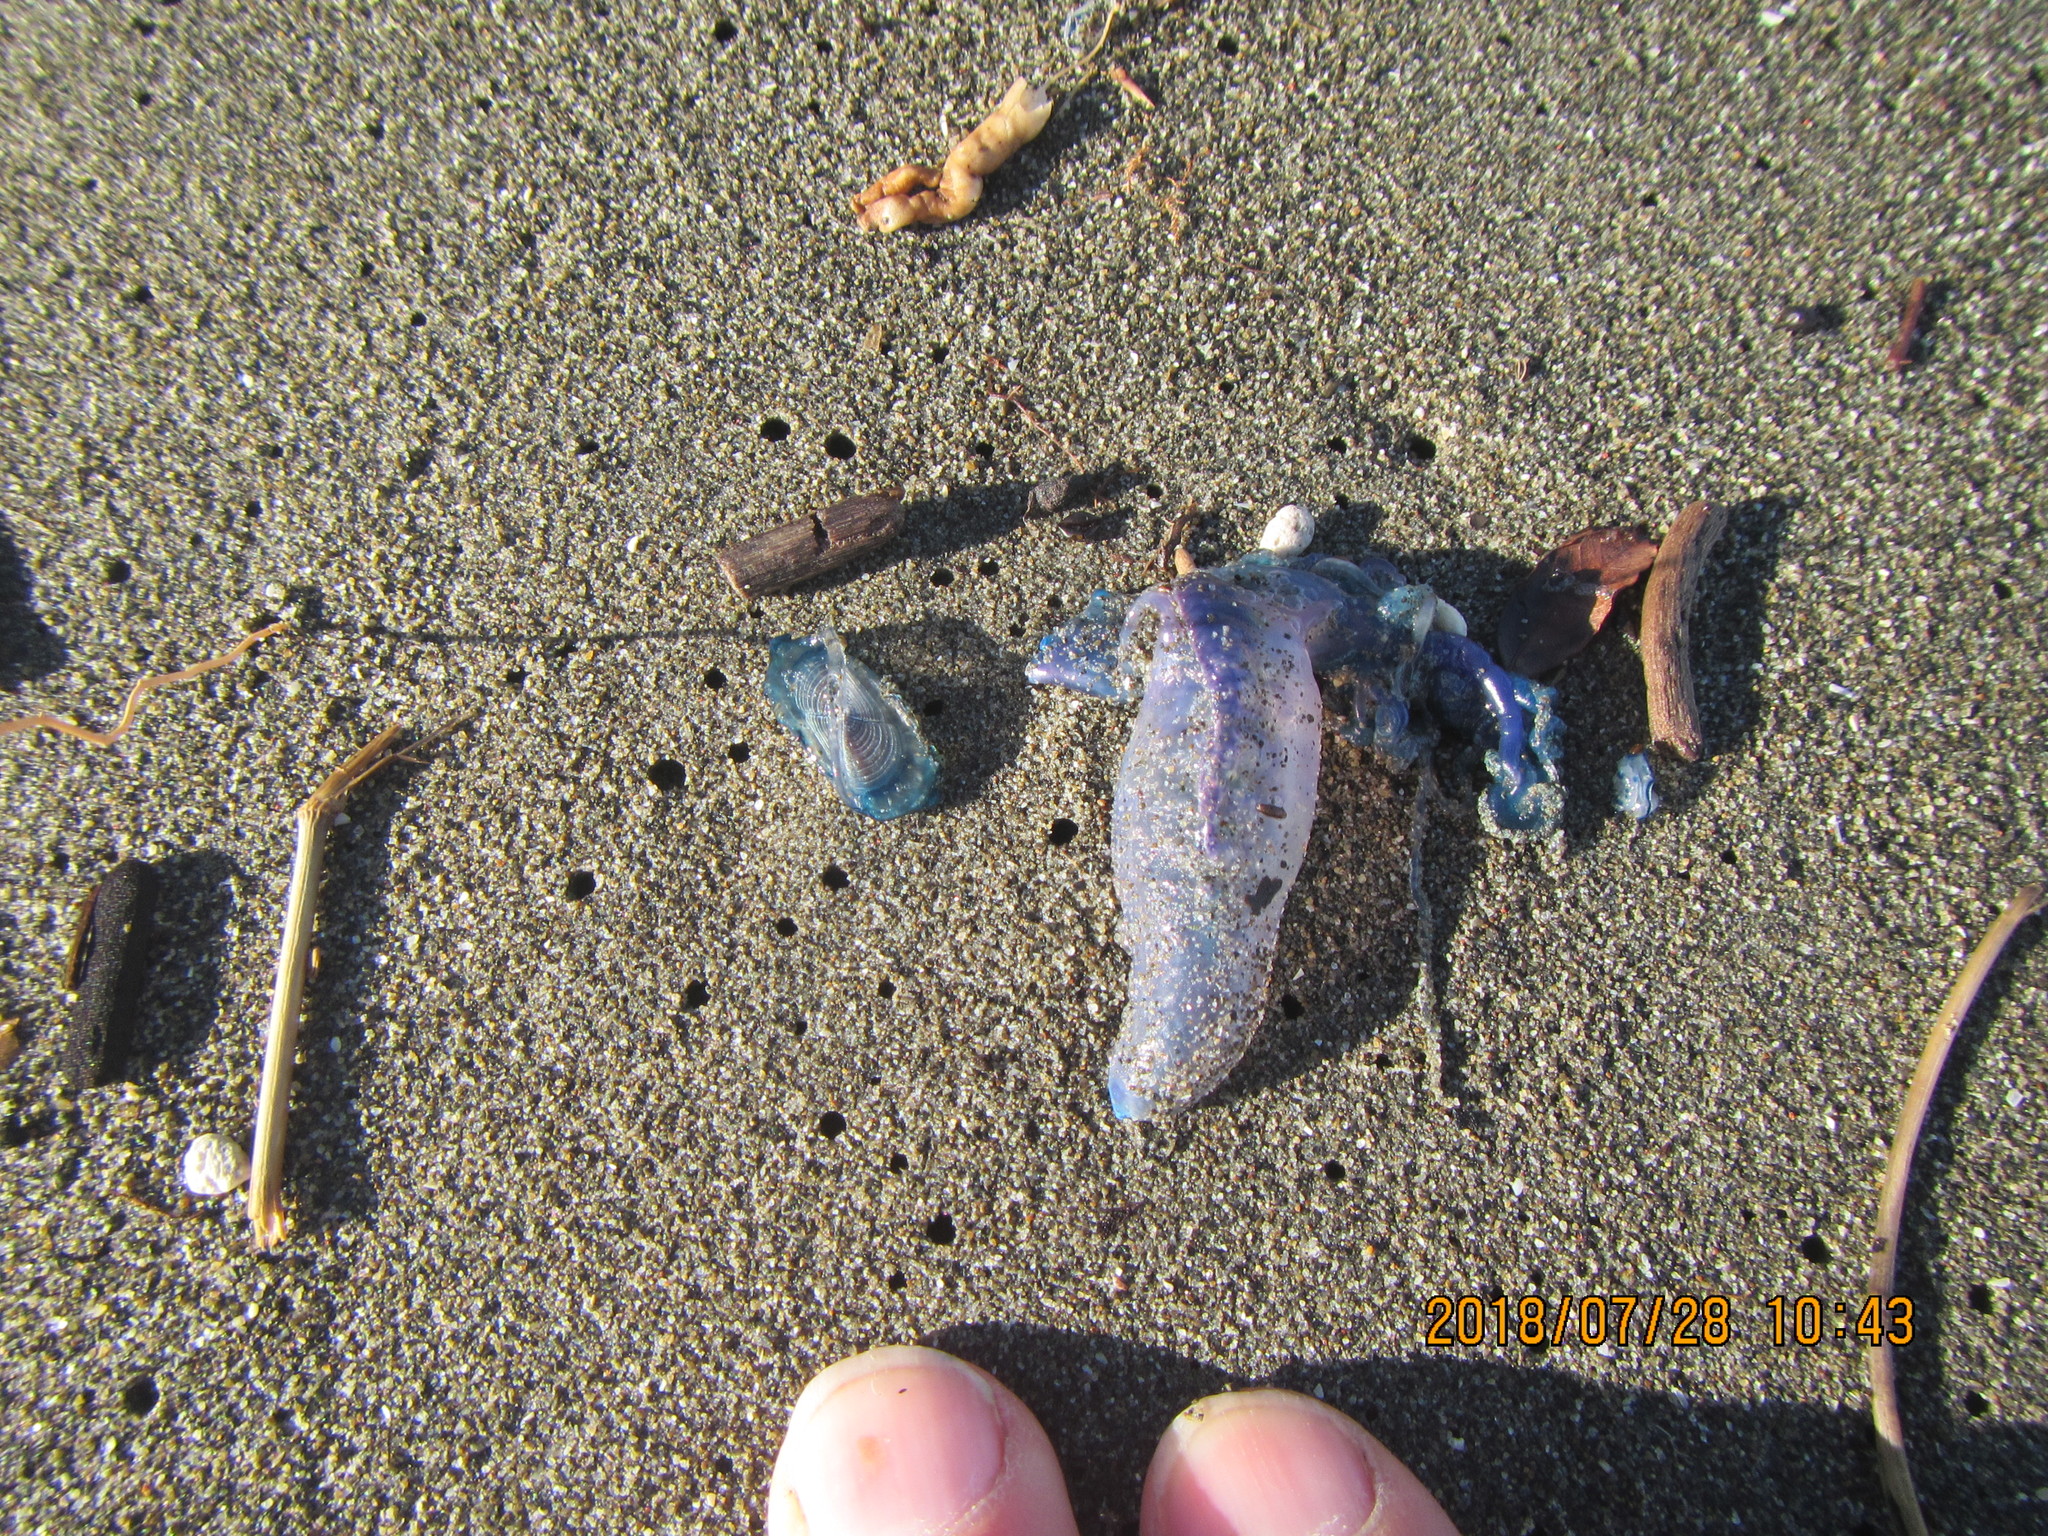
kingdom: Animalia
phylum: Cnidaria
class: Hydrozoa
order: Anthoathecata
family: Porpitidae
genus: Velella
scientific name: Velella velella
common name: By-the-wind-sailor
